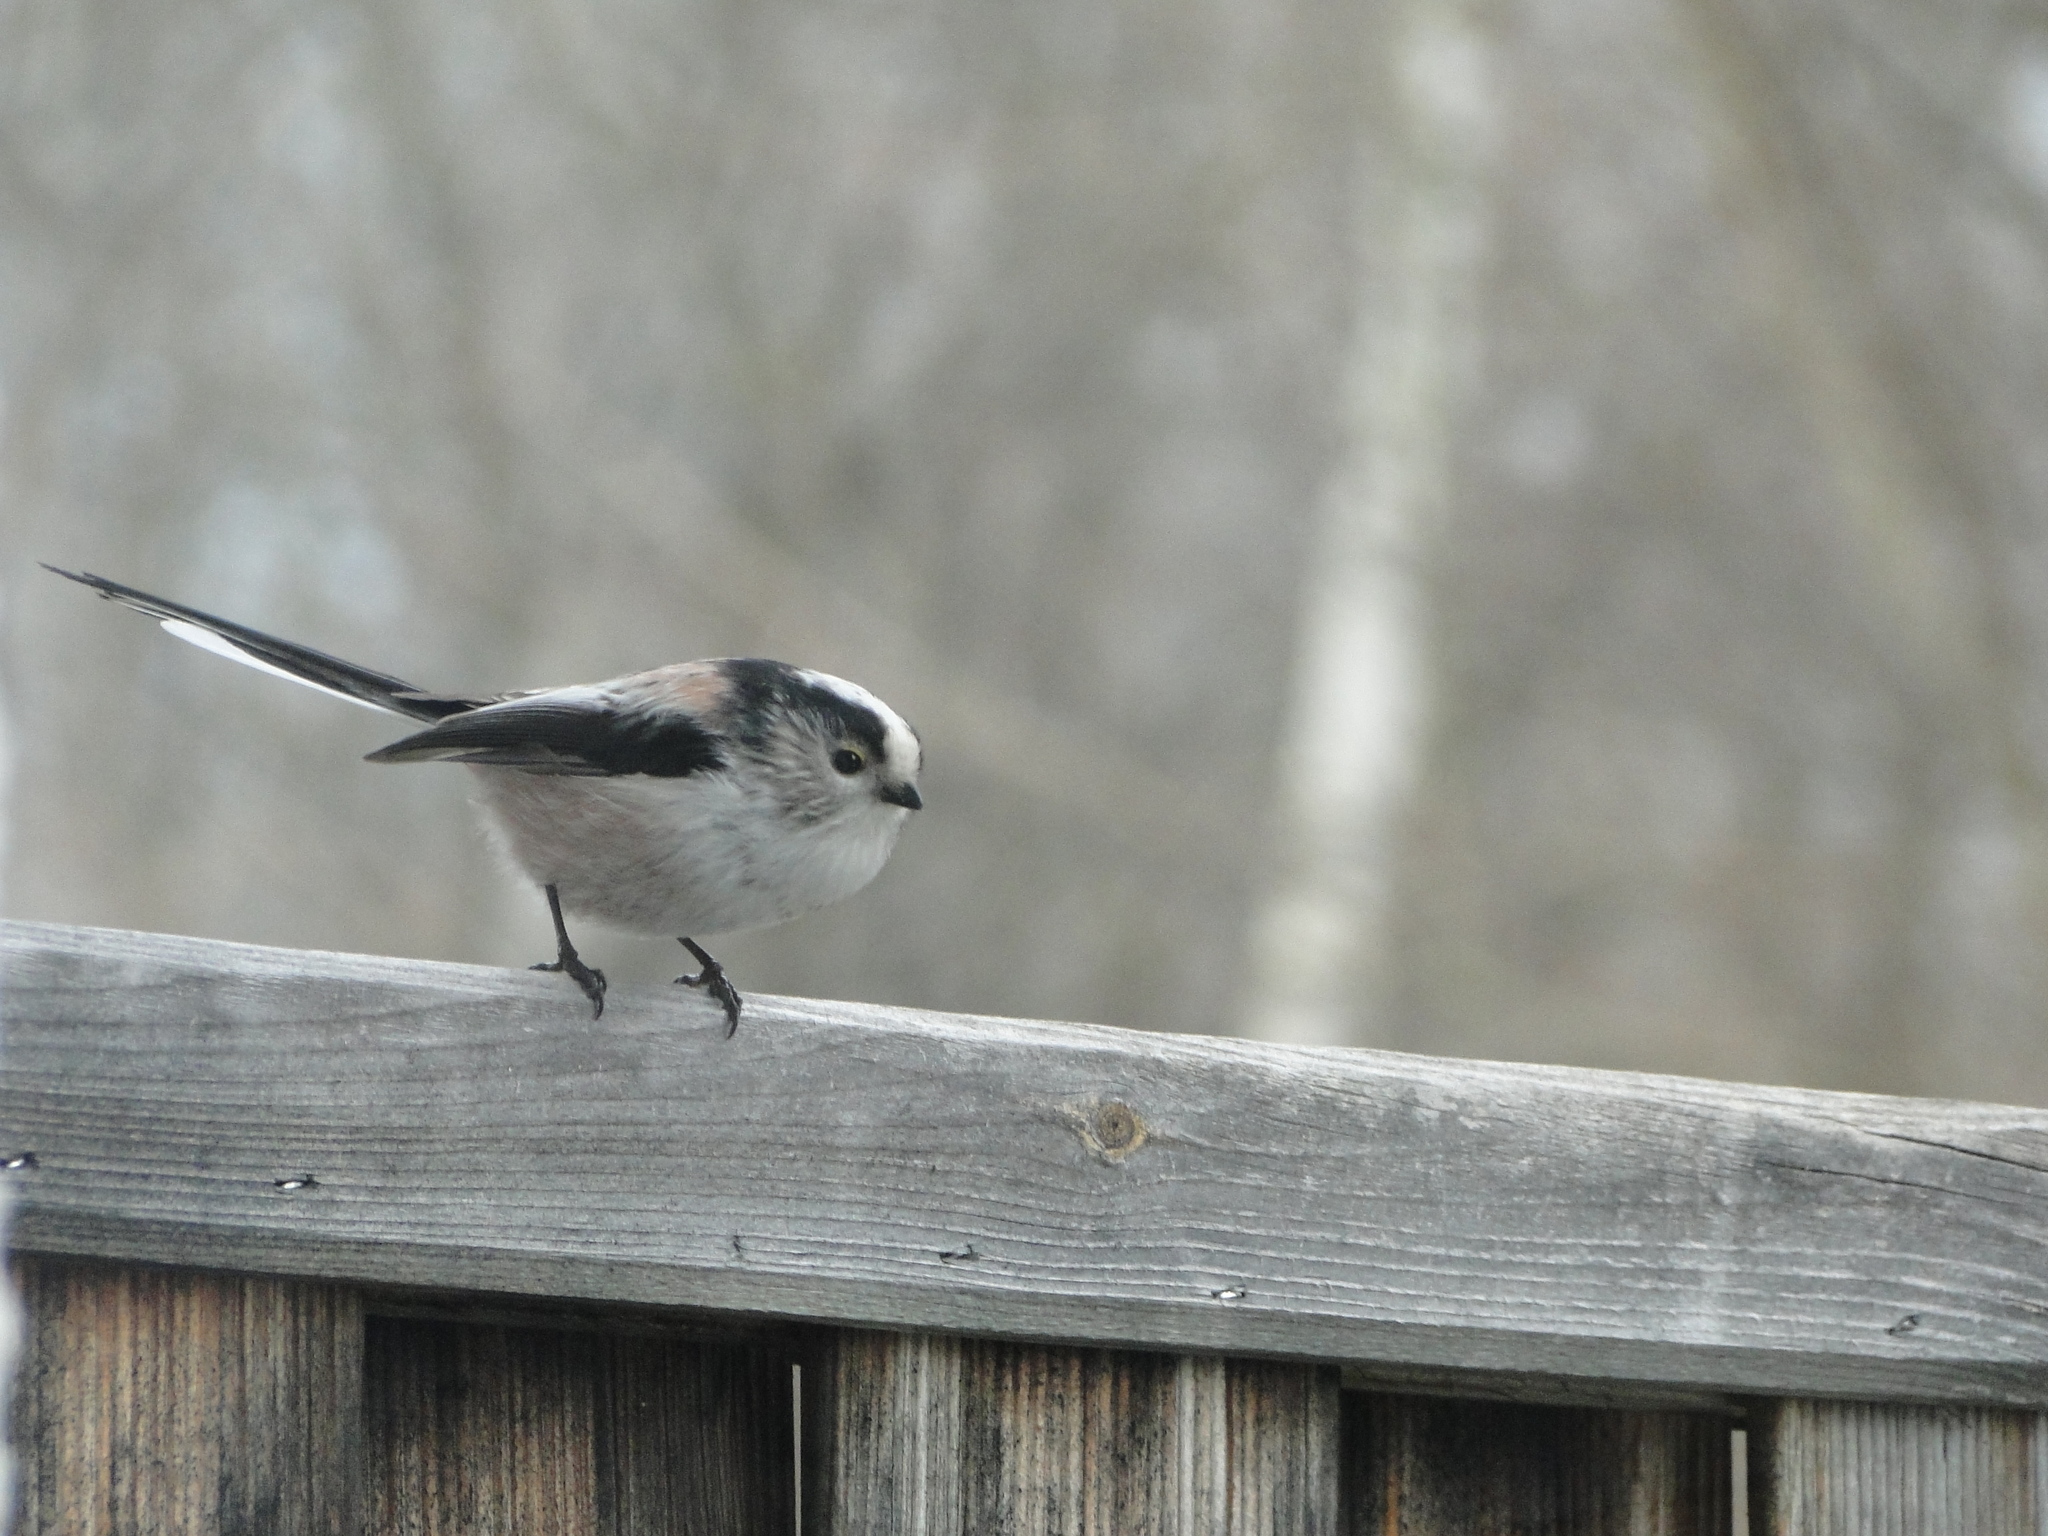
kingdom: Animalia
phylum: Chordata
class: Aves
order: Passeriformes
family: Aegithalidae
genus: Aegithalos
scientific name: Aegithalos caudatus
